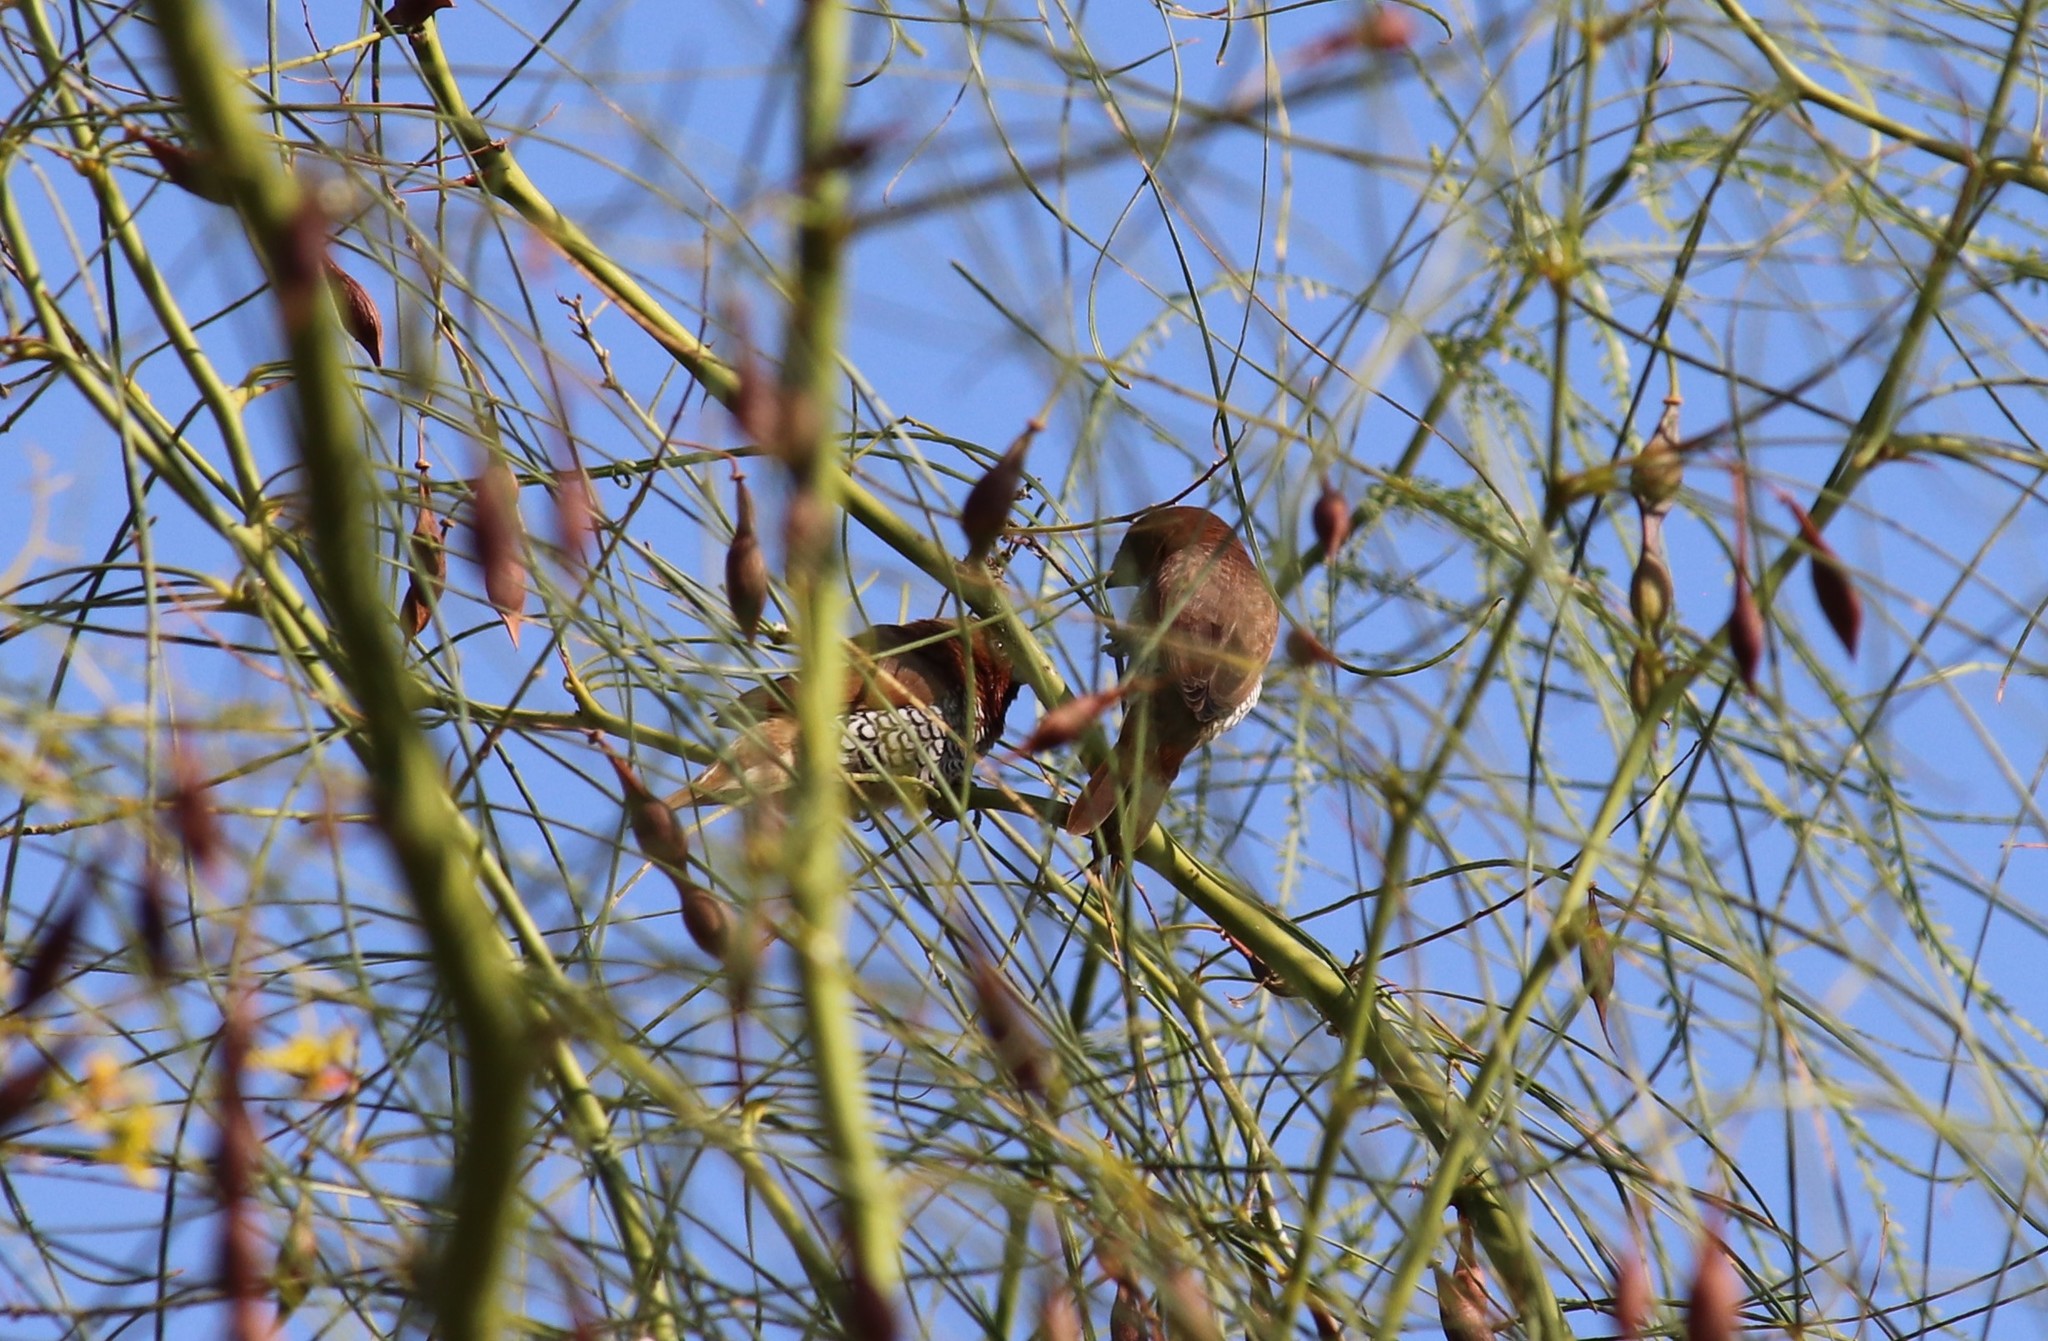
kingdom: Animalia
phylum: Chordata
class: Aves
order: Passeriformes
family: Estrildidae
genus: Lonchura
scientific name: Lonchura punctulata
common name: Scaly-breasted munia
